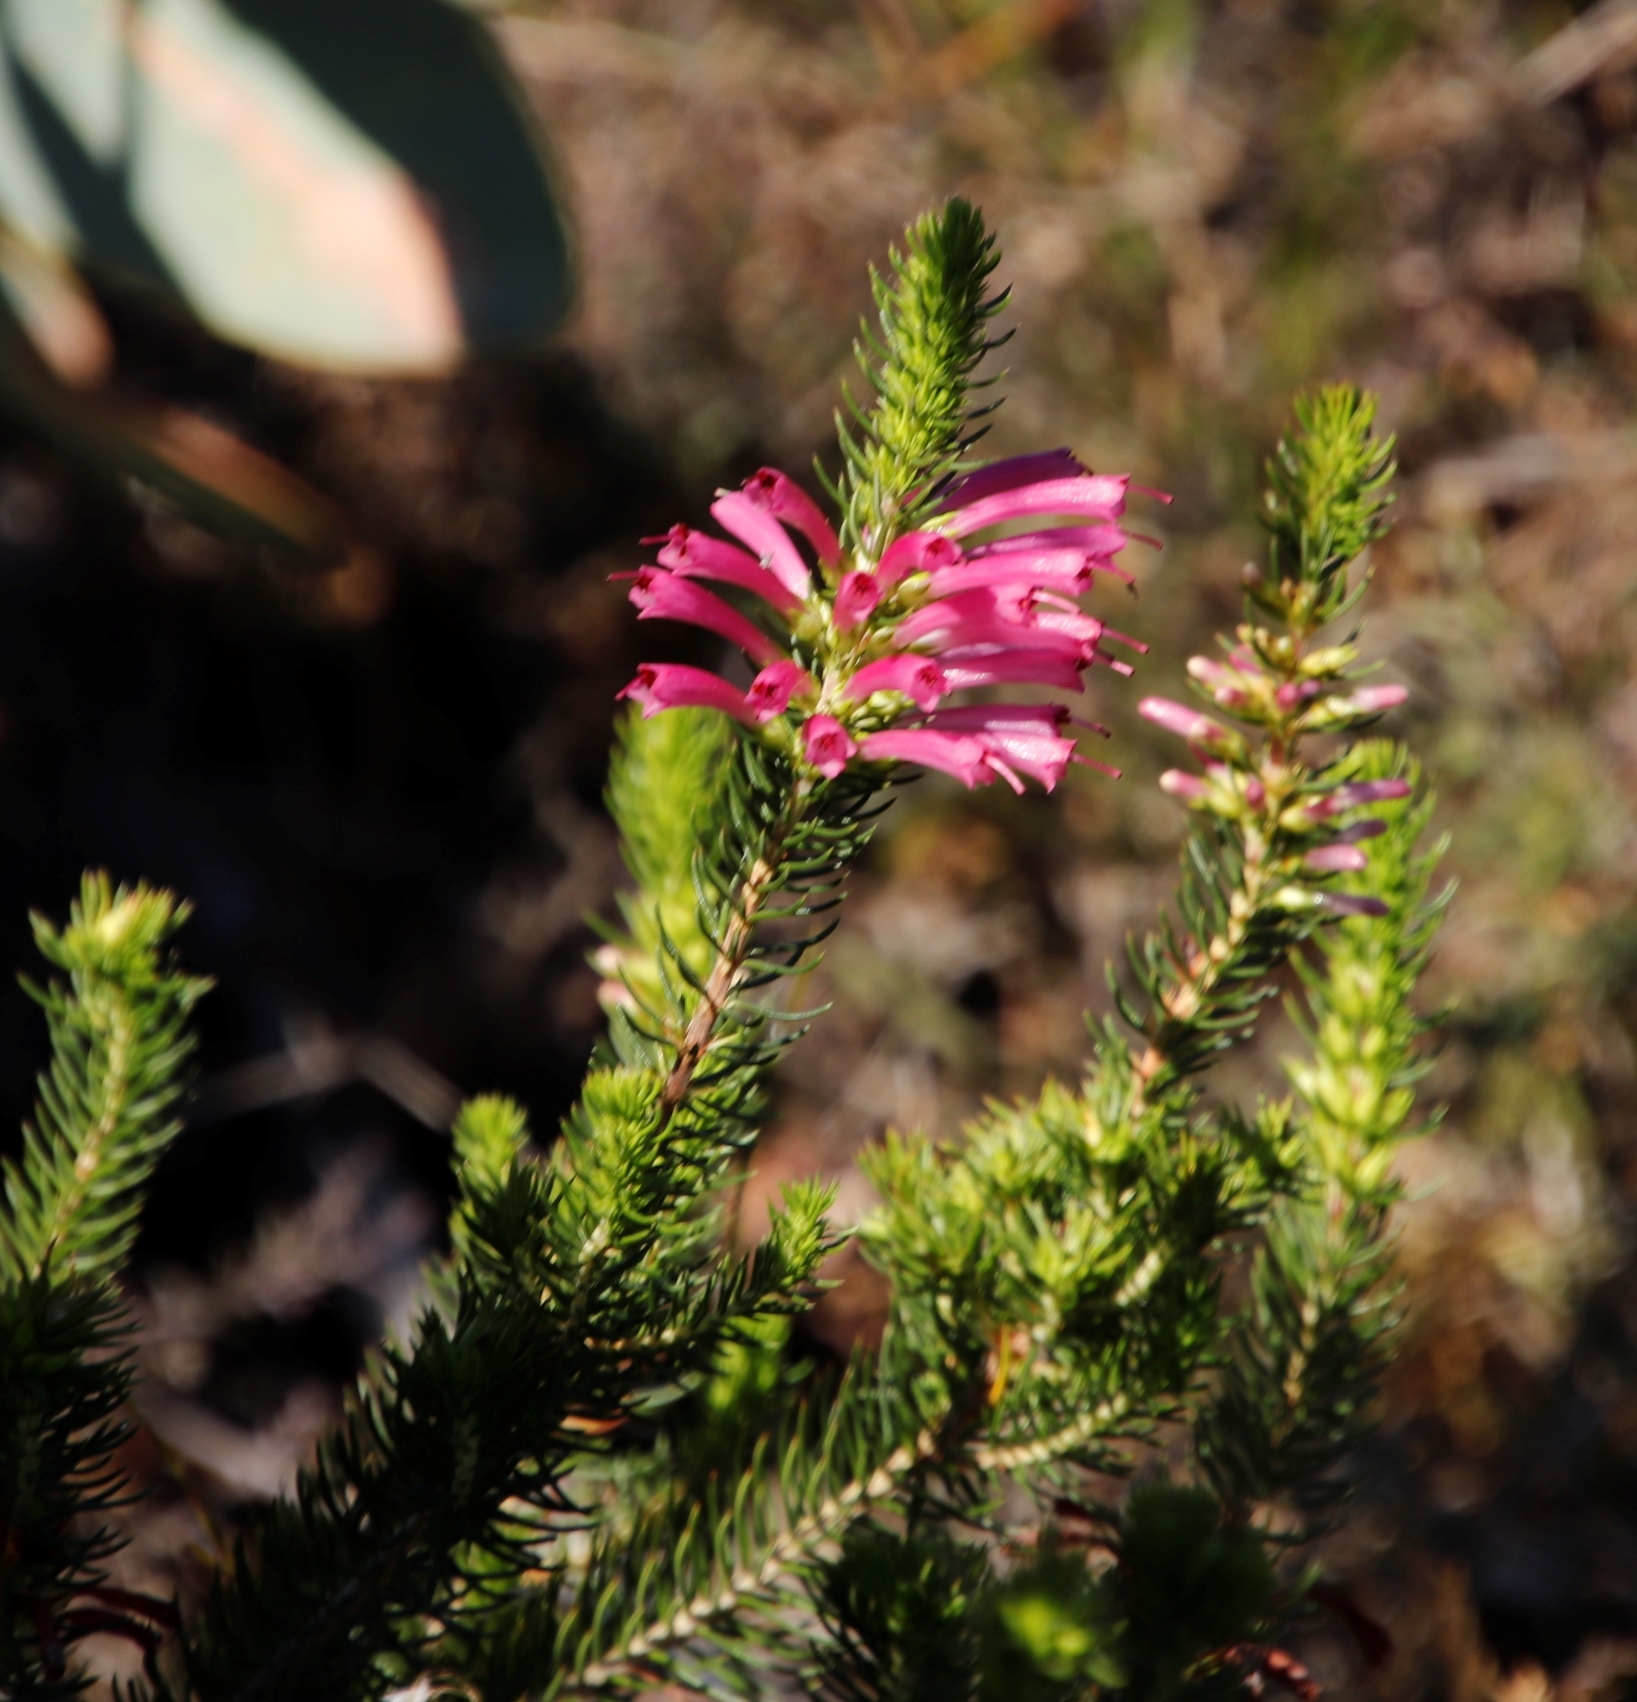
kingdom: Plantae
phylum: Tracheophyta
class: Magnoliopsida
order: Ericales
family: Ericaceae
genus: Erica
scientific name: Erica abietina
